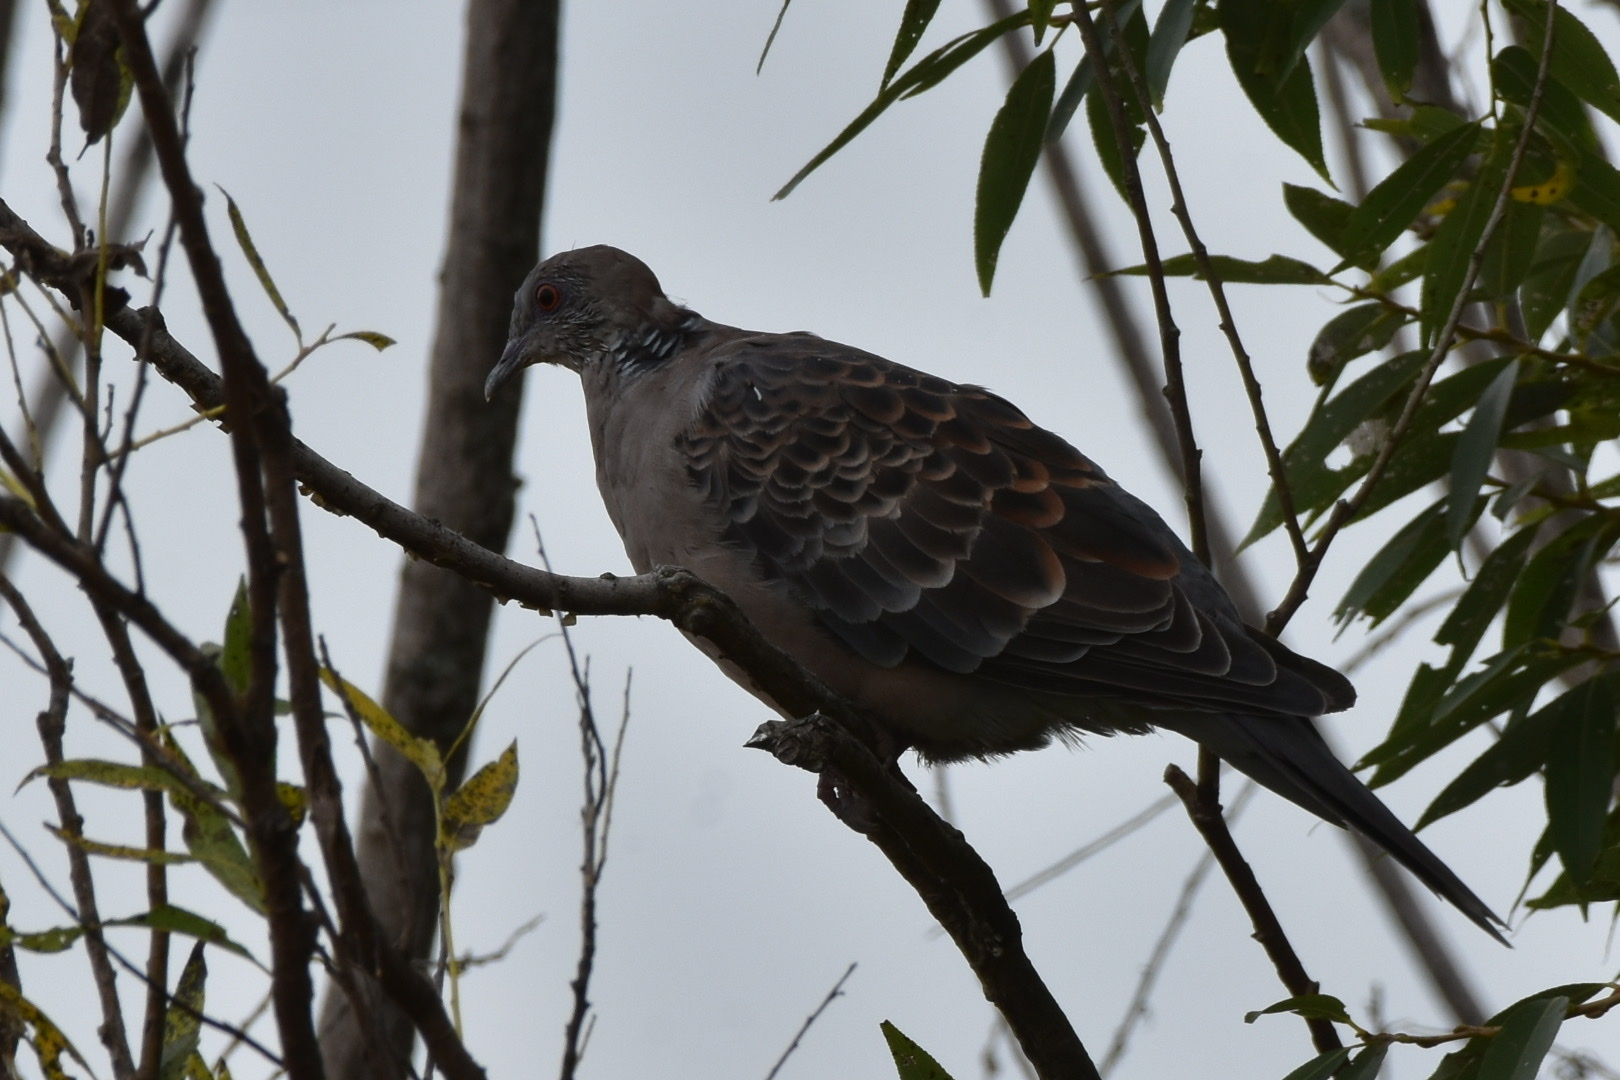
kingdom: Animalia
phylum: Chordata
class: Aves
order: Columbiformes
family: Columbidae
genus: Streptopelia
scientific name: Streptopelia orientalis
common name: Oriental turtle dove
